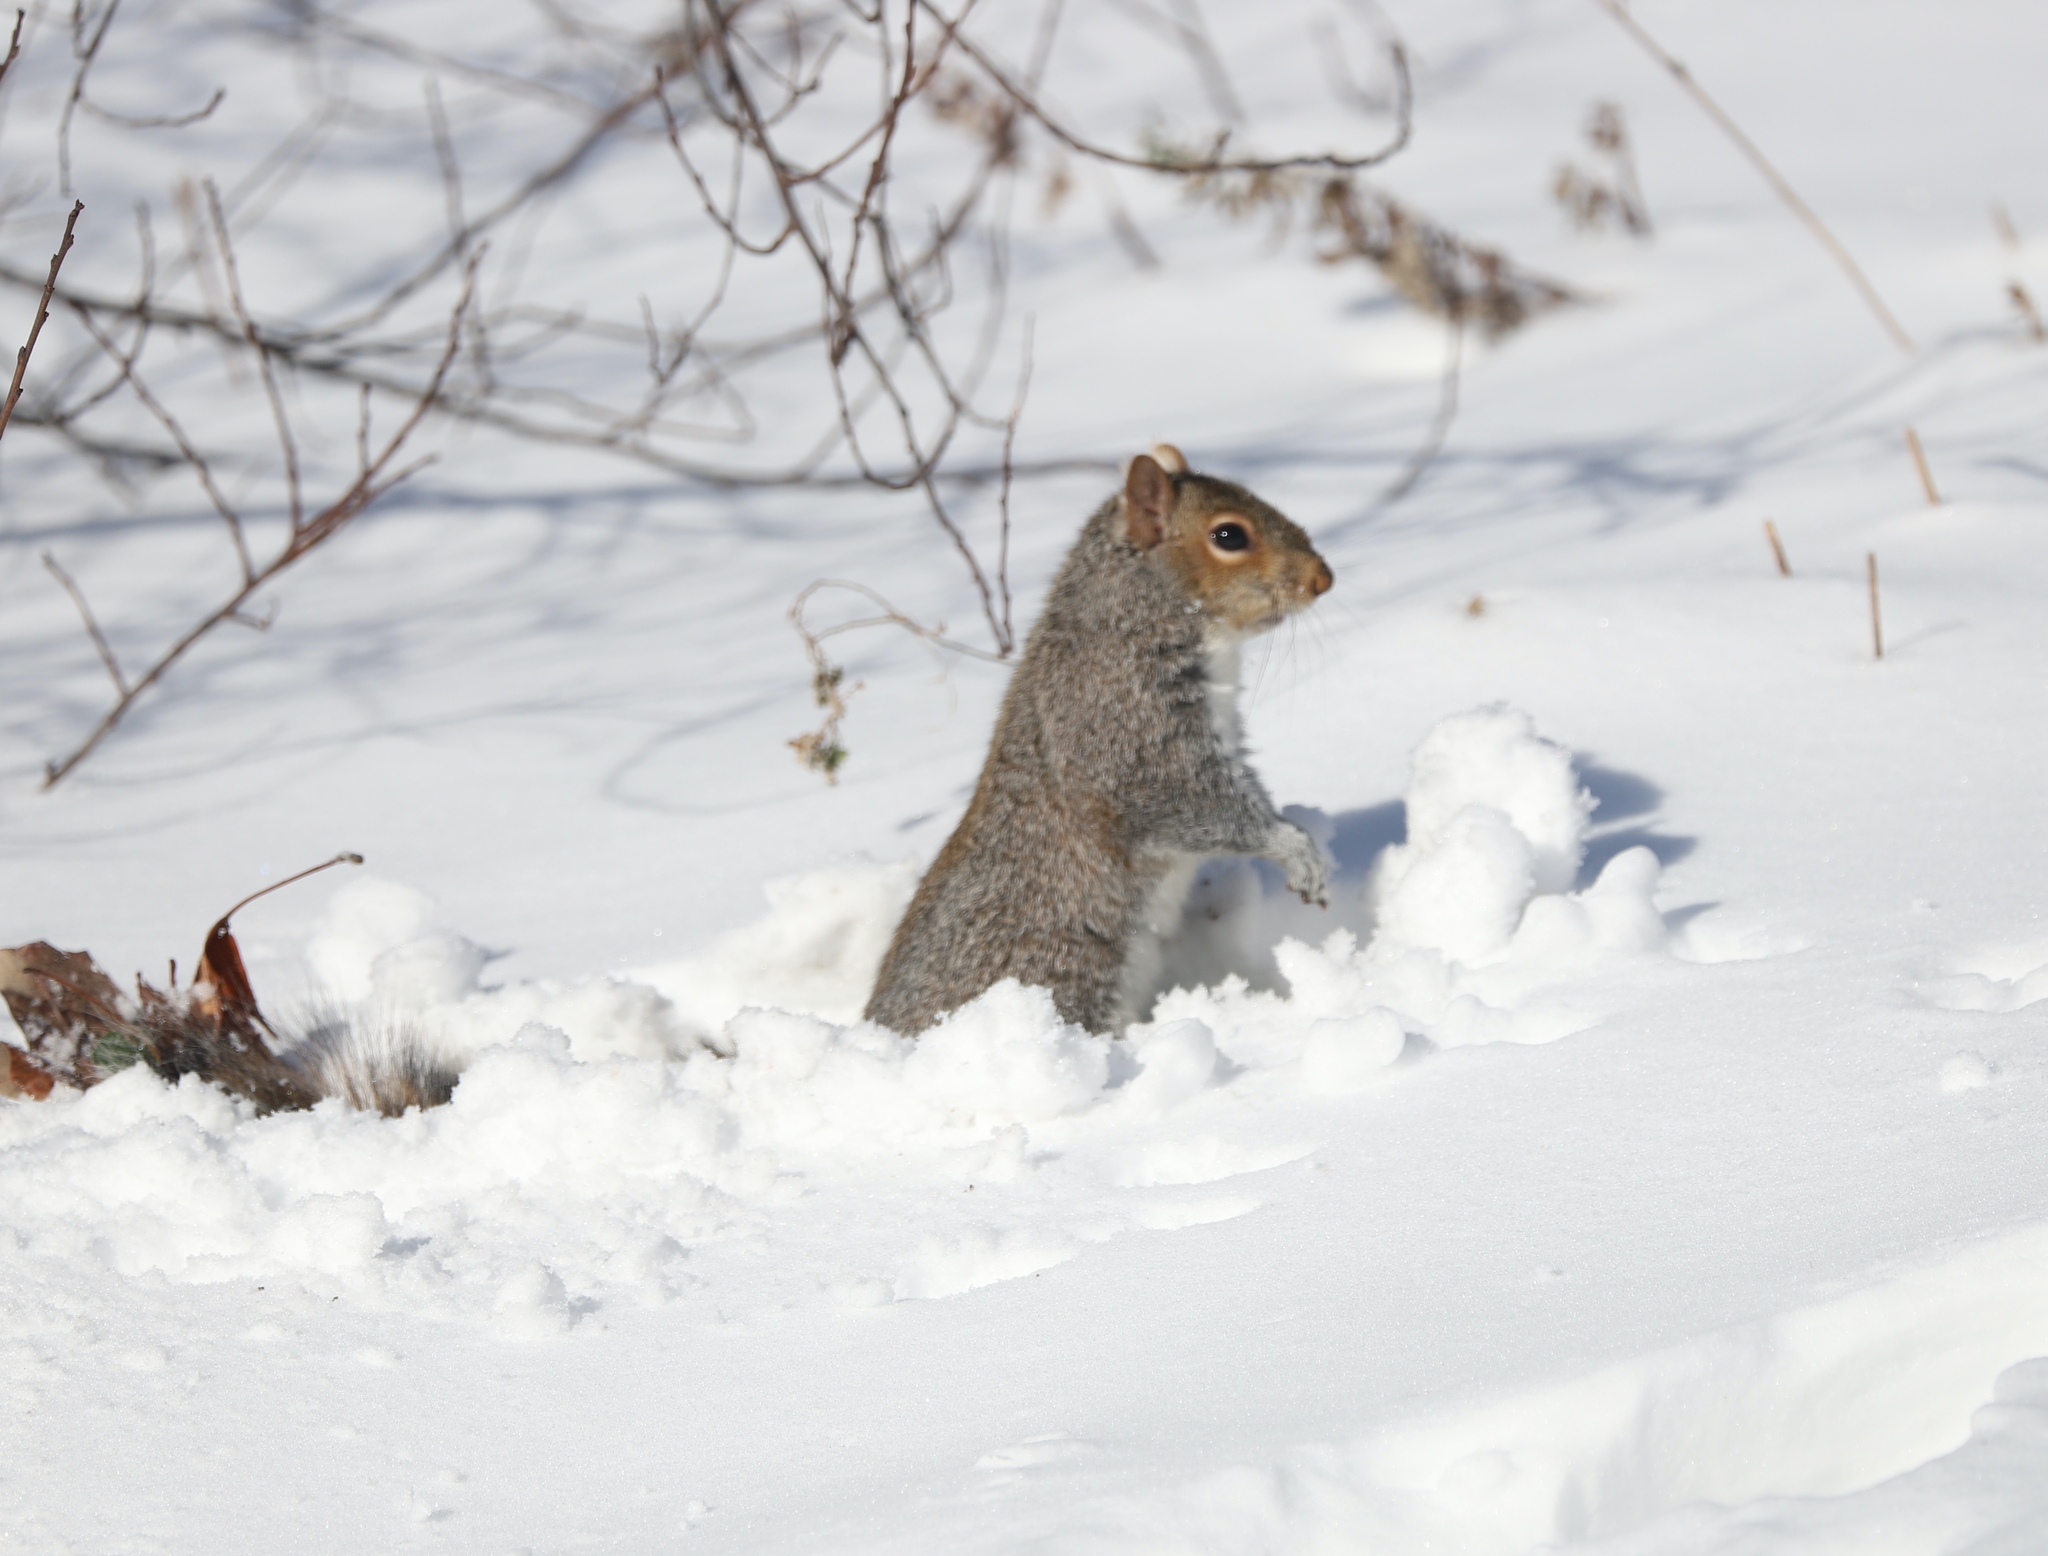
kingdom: Animalia
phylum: Chordata
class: Mammalia
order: Rodentia
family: Sciuridae
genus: Sciurus
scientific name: Sciurus carolinensis
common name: Eastern gray squirrel
